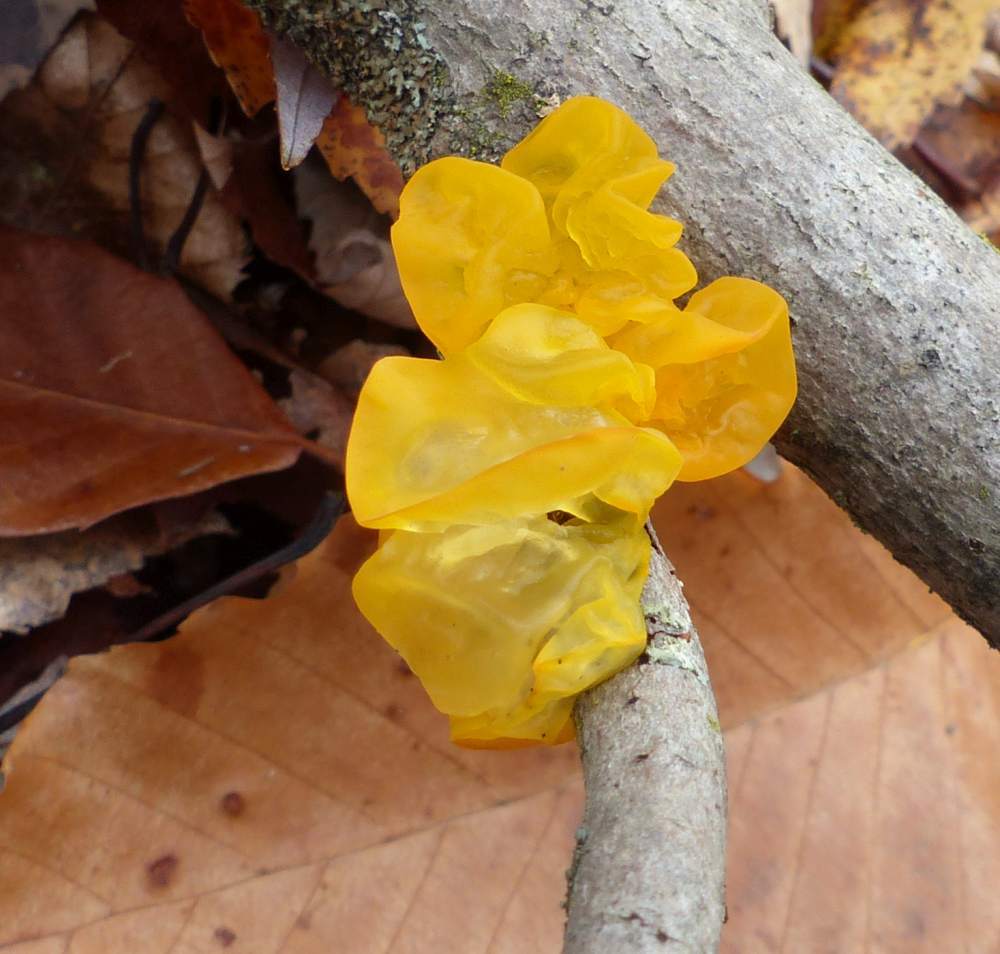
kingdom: Fungi
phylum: Basidiomycota
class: Tremellomycetes
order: Tremellales
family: Tremellaceae
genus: Tremella
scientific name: Tremella mesenterica
